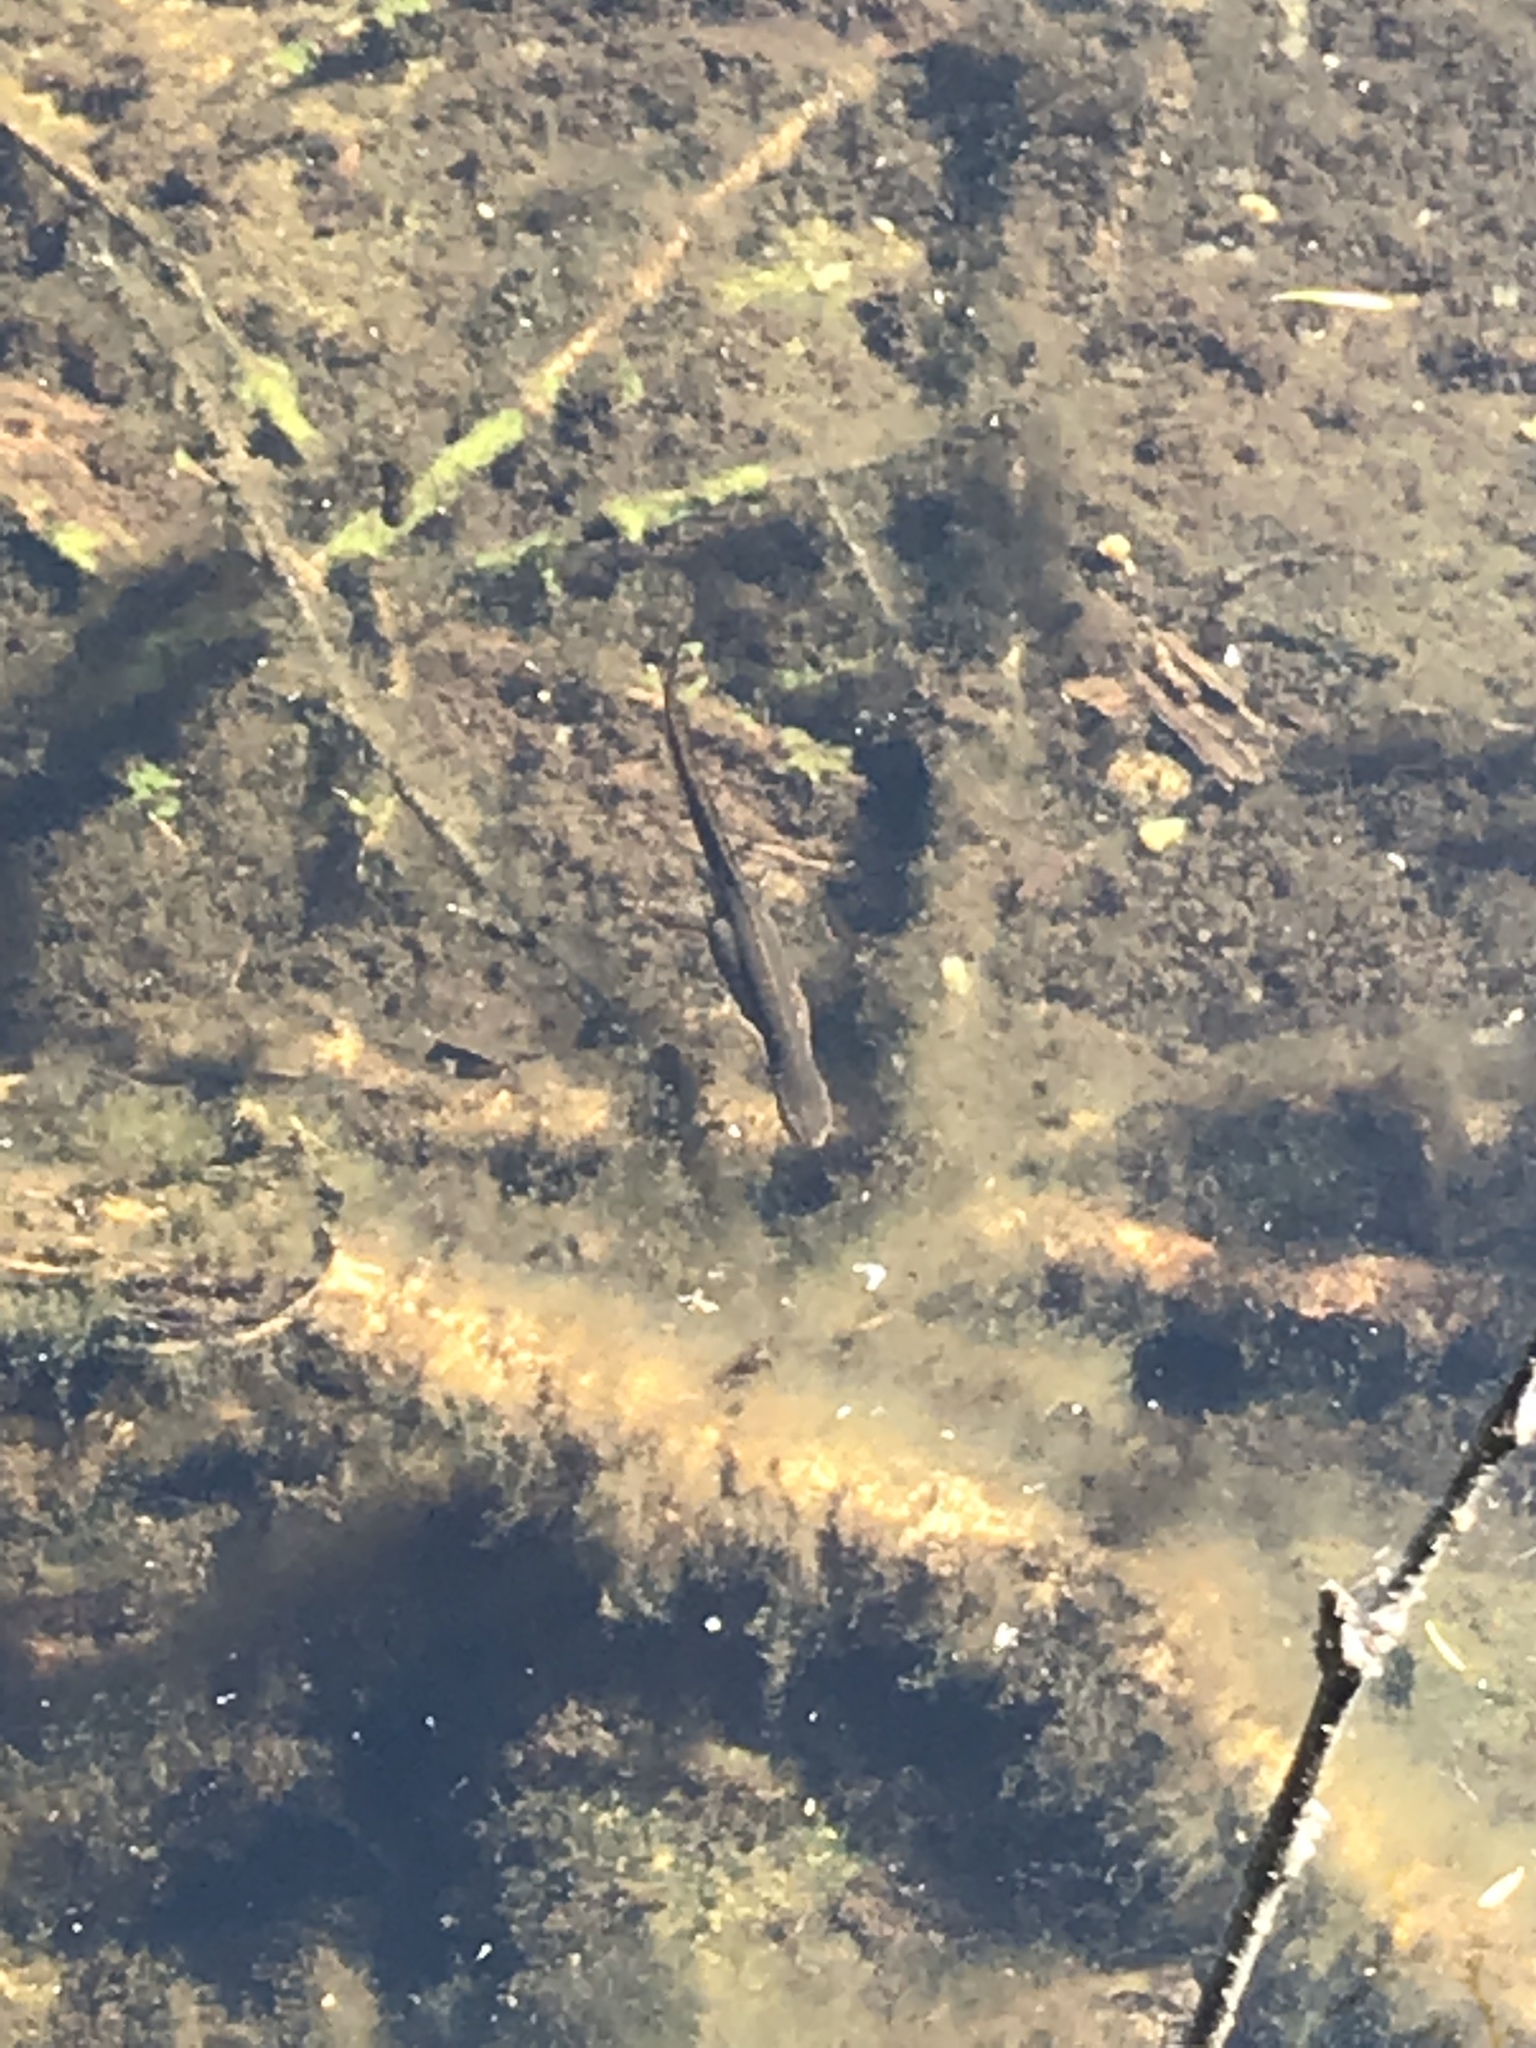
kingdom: Animalia
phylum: Chordata
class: Amphibia
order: Caudata
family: Salamandridae
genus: Notophthalmus
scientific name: Notophthalmus viridescens
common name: Eastern newt
